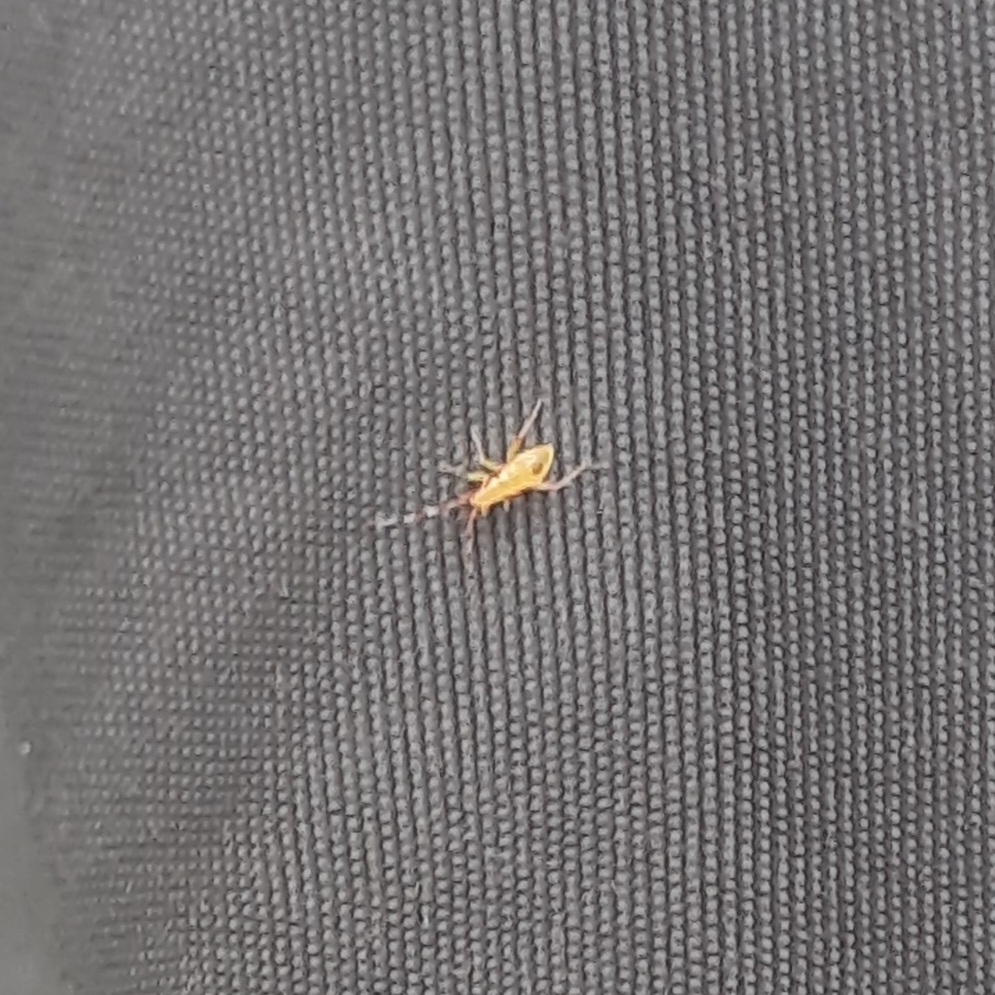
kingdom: Animalia
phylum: Arthropoda
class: Insecta
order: Hemiptera
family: Miridae
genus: Campyloneura
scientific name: Campyloneura virgula
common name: Predatory bug
